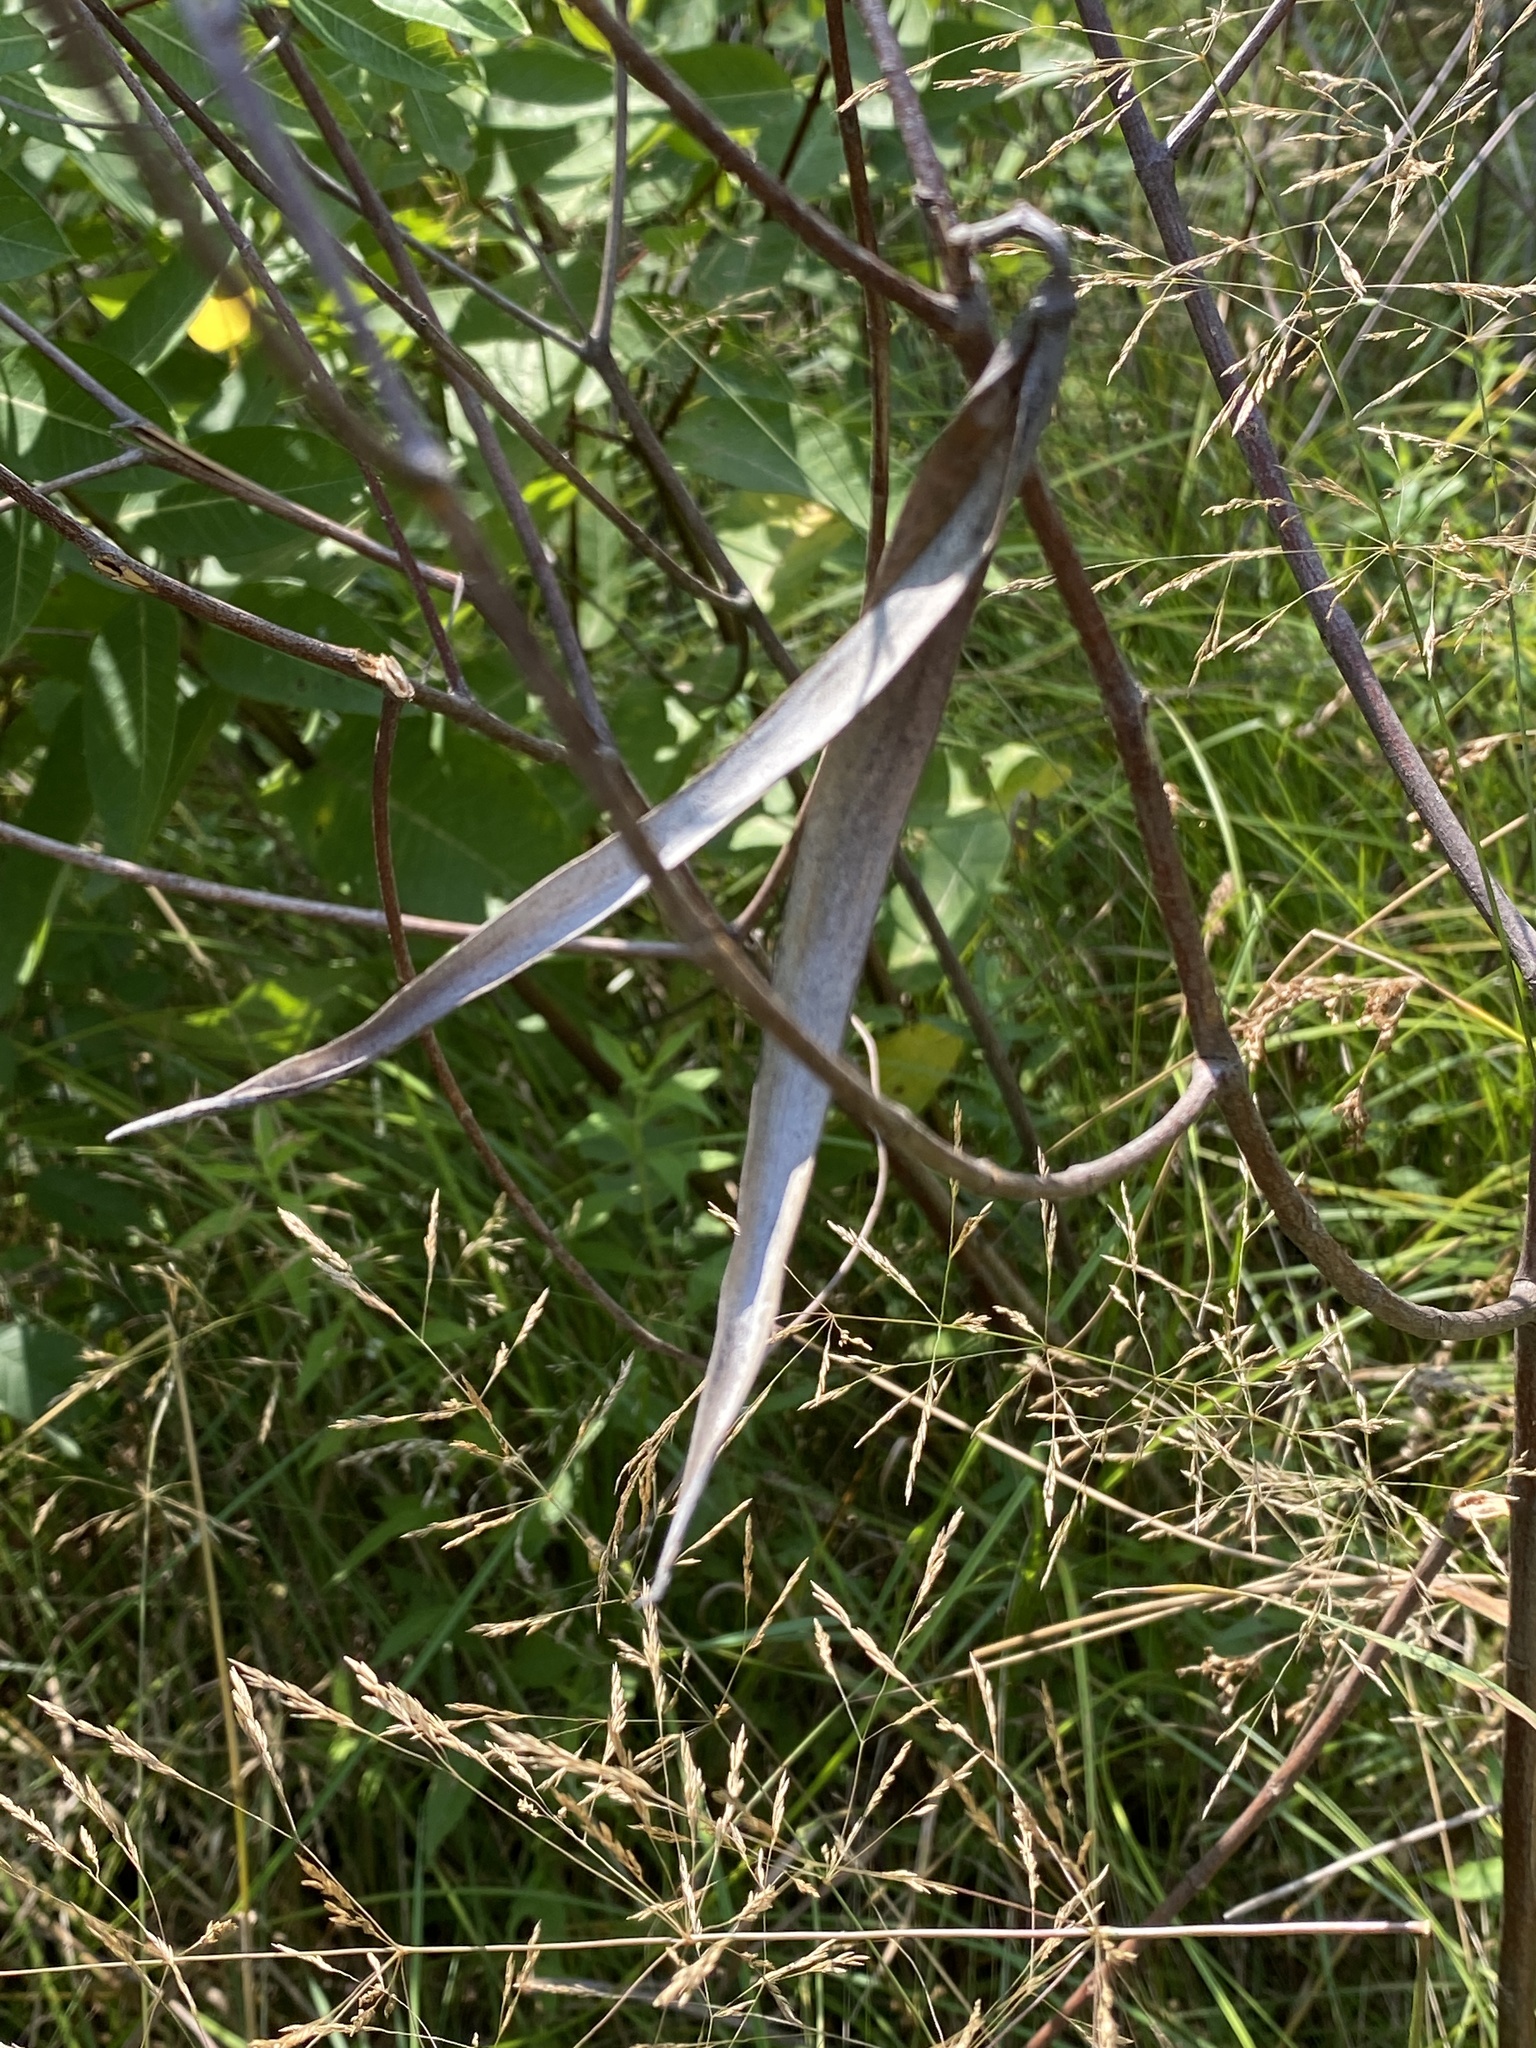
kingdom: Plantae
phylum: Tracheophyta
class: Magnoliopsida
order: Gentianales
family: Apocynaceae
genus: Apocynum
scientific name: Apocynum cannabinum
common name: Hemp dogbane
